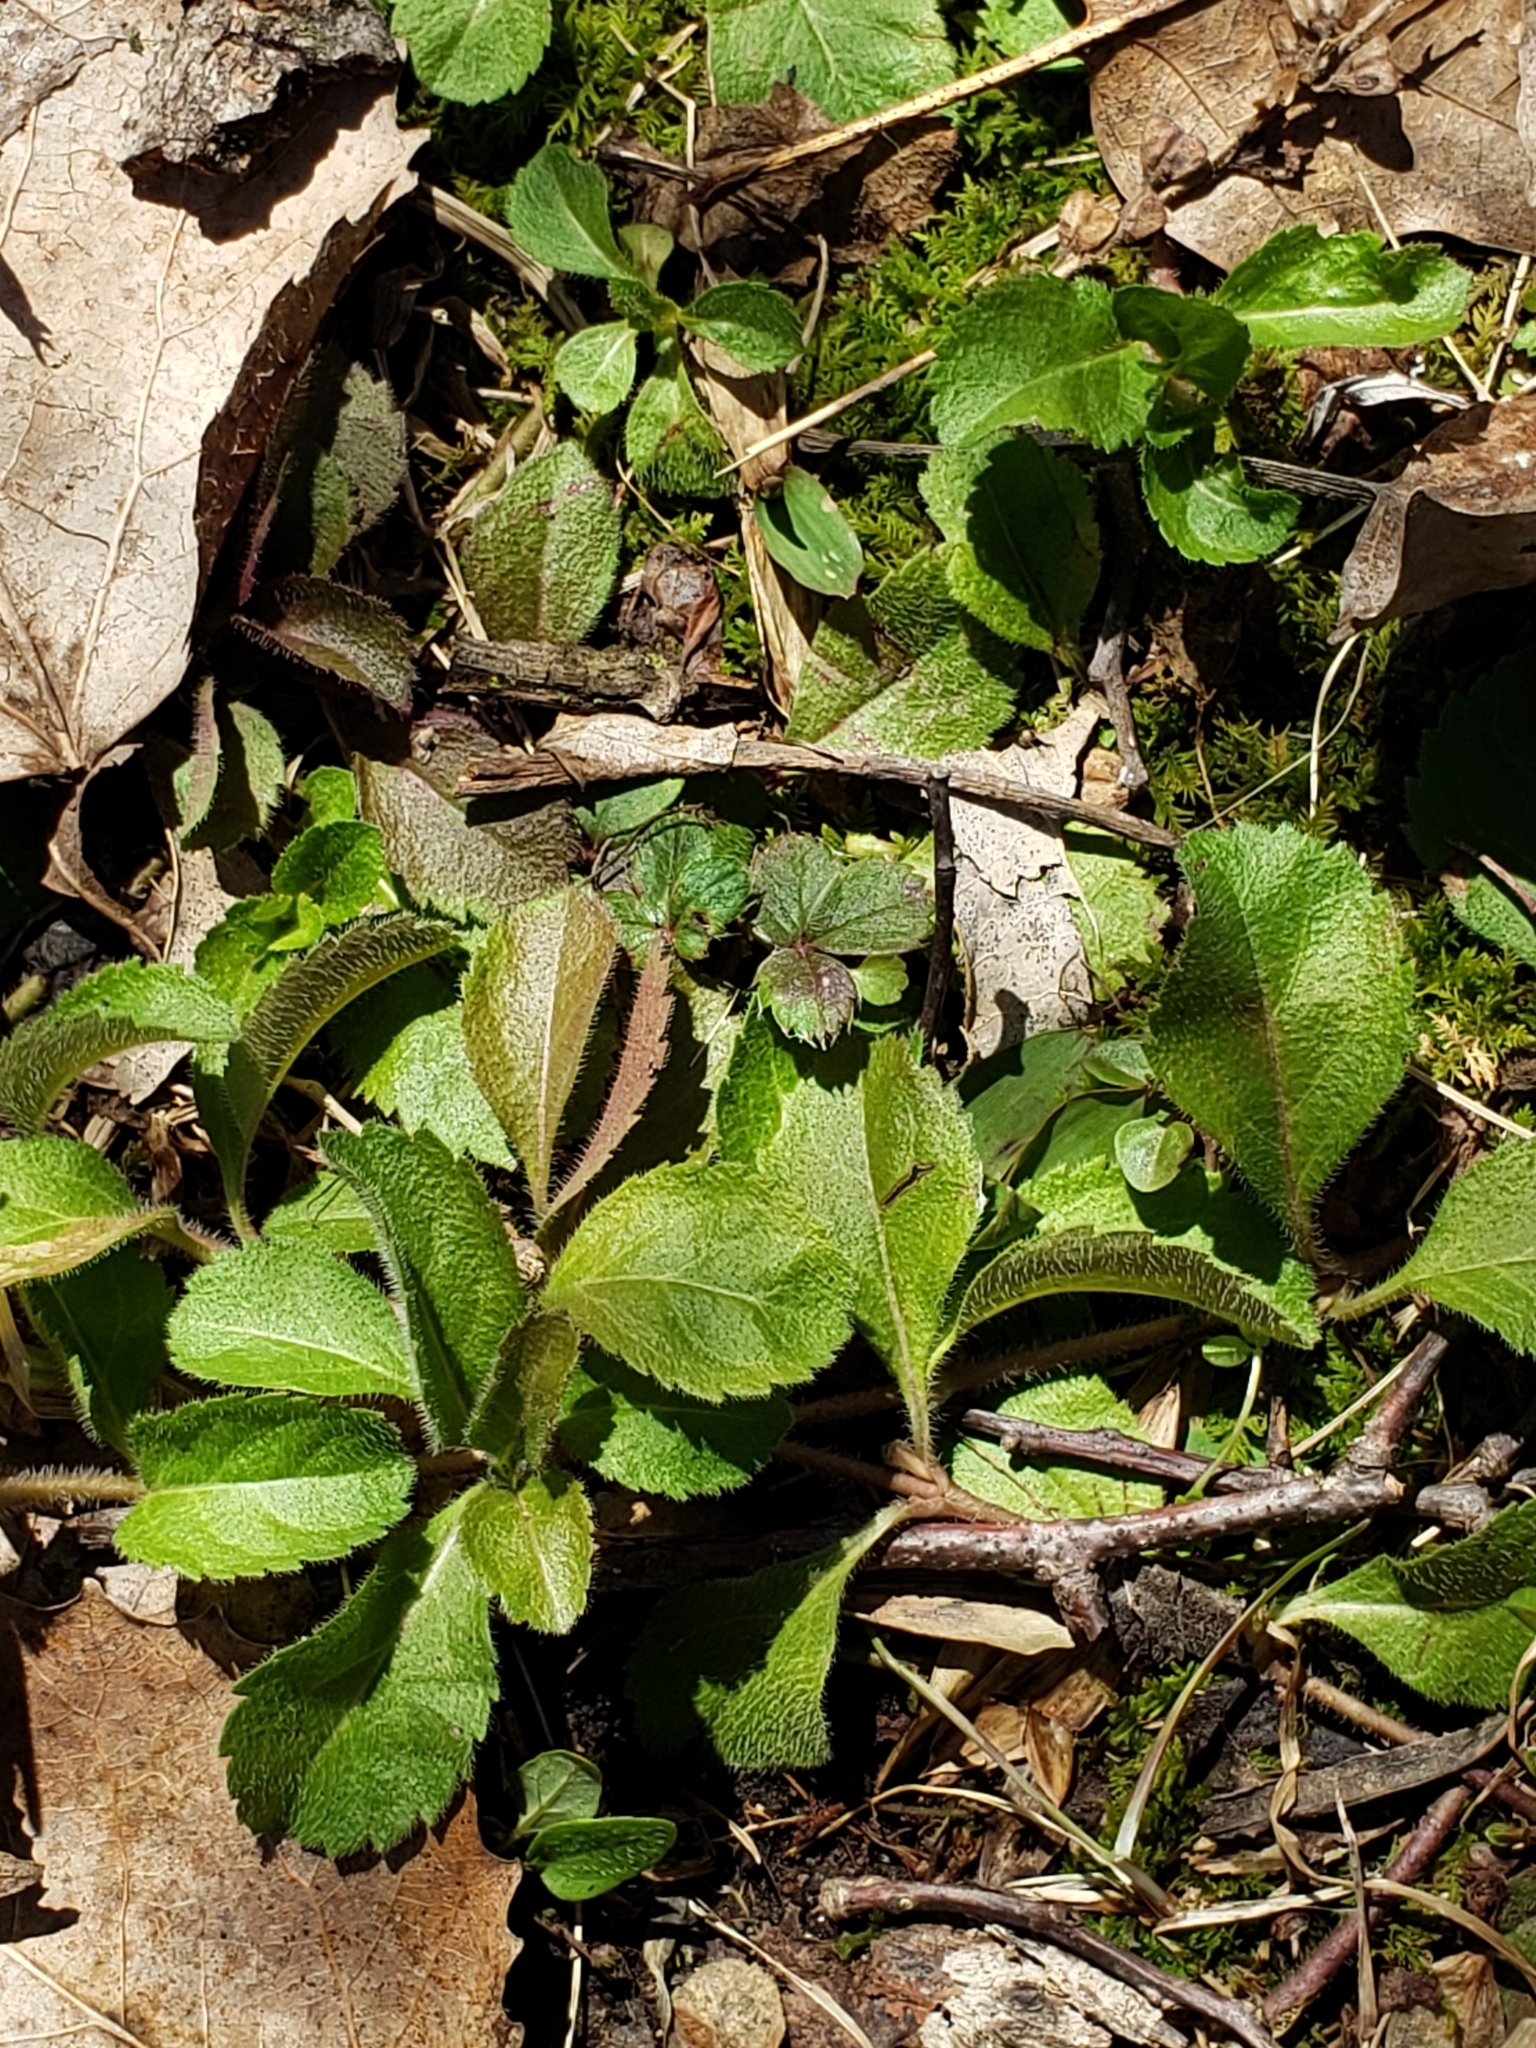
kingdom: Plantae
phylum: Tracheophyta
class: Magnoliopsida
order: Lamiales
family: Plantaginaceae
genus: Veronica
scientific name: Veronica officinalis
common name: Common speedwell
